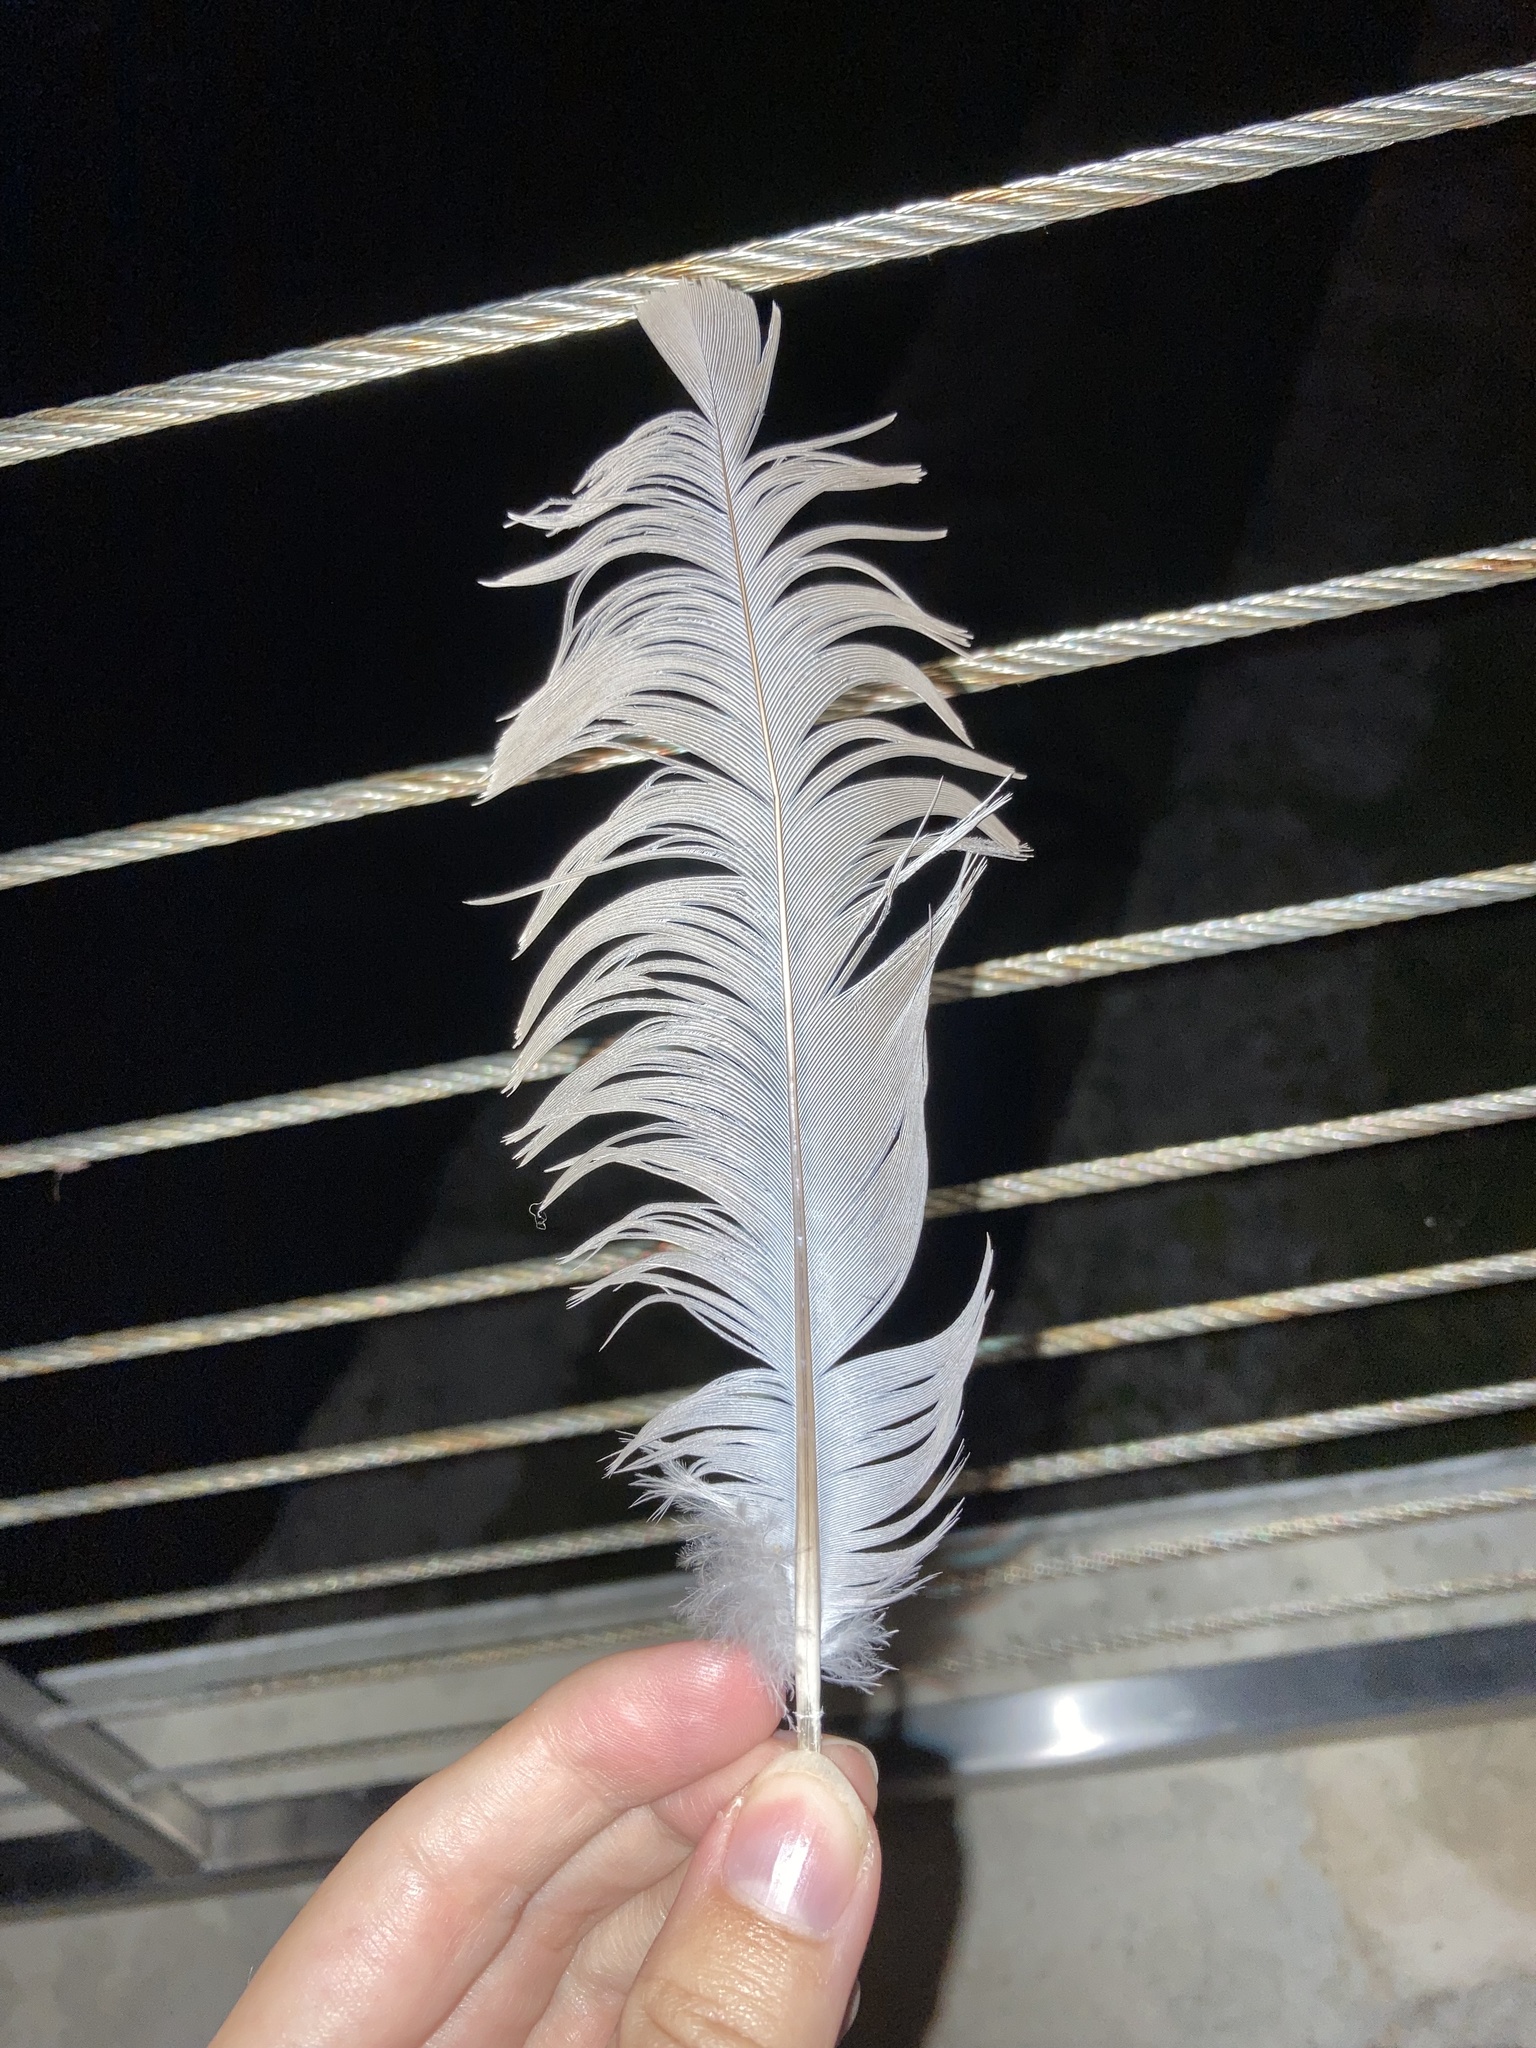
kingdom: Animalia
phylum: Chordata
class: Aves
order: Columbiformes
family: Columbidae
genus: Streptopelia
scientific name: Streptopelia decaocto
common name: Eurasian collared dove
